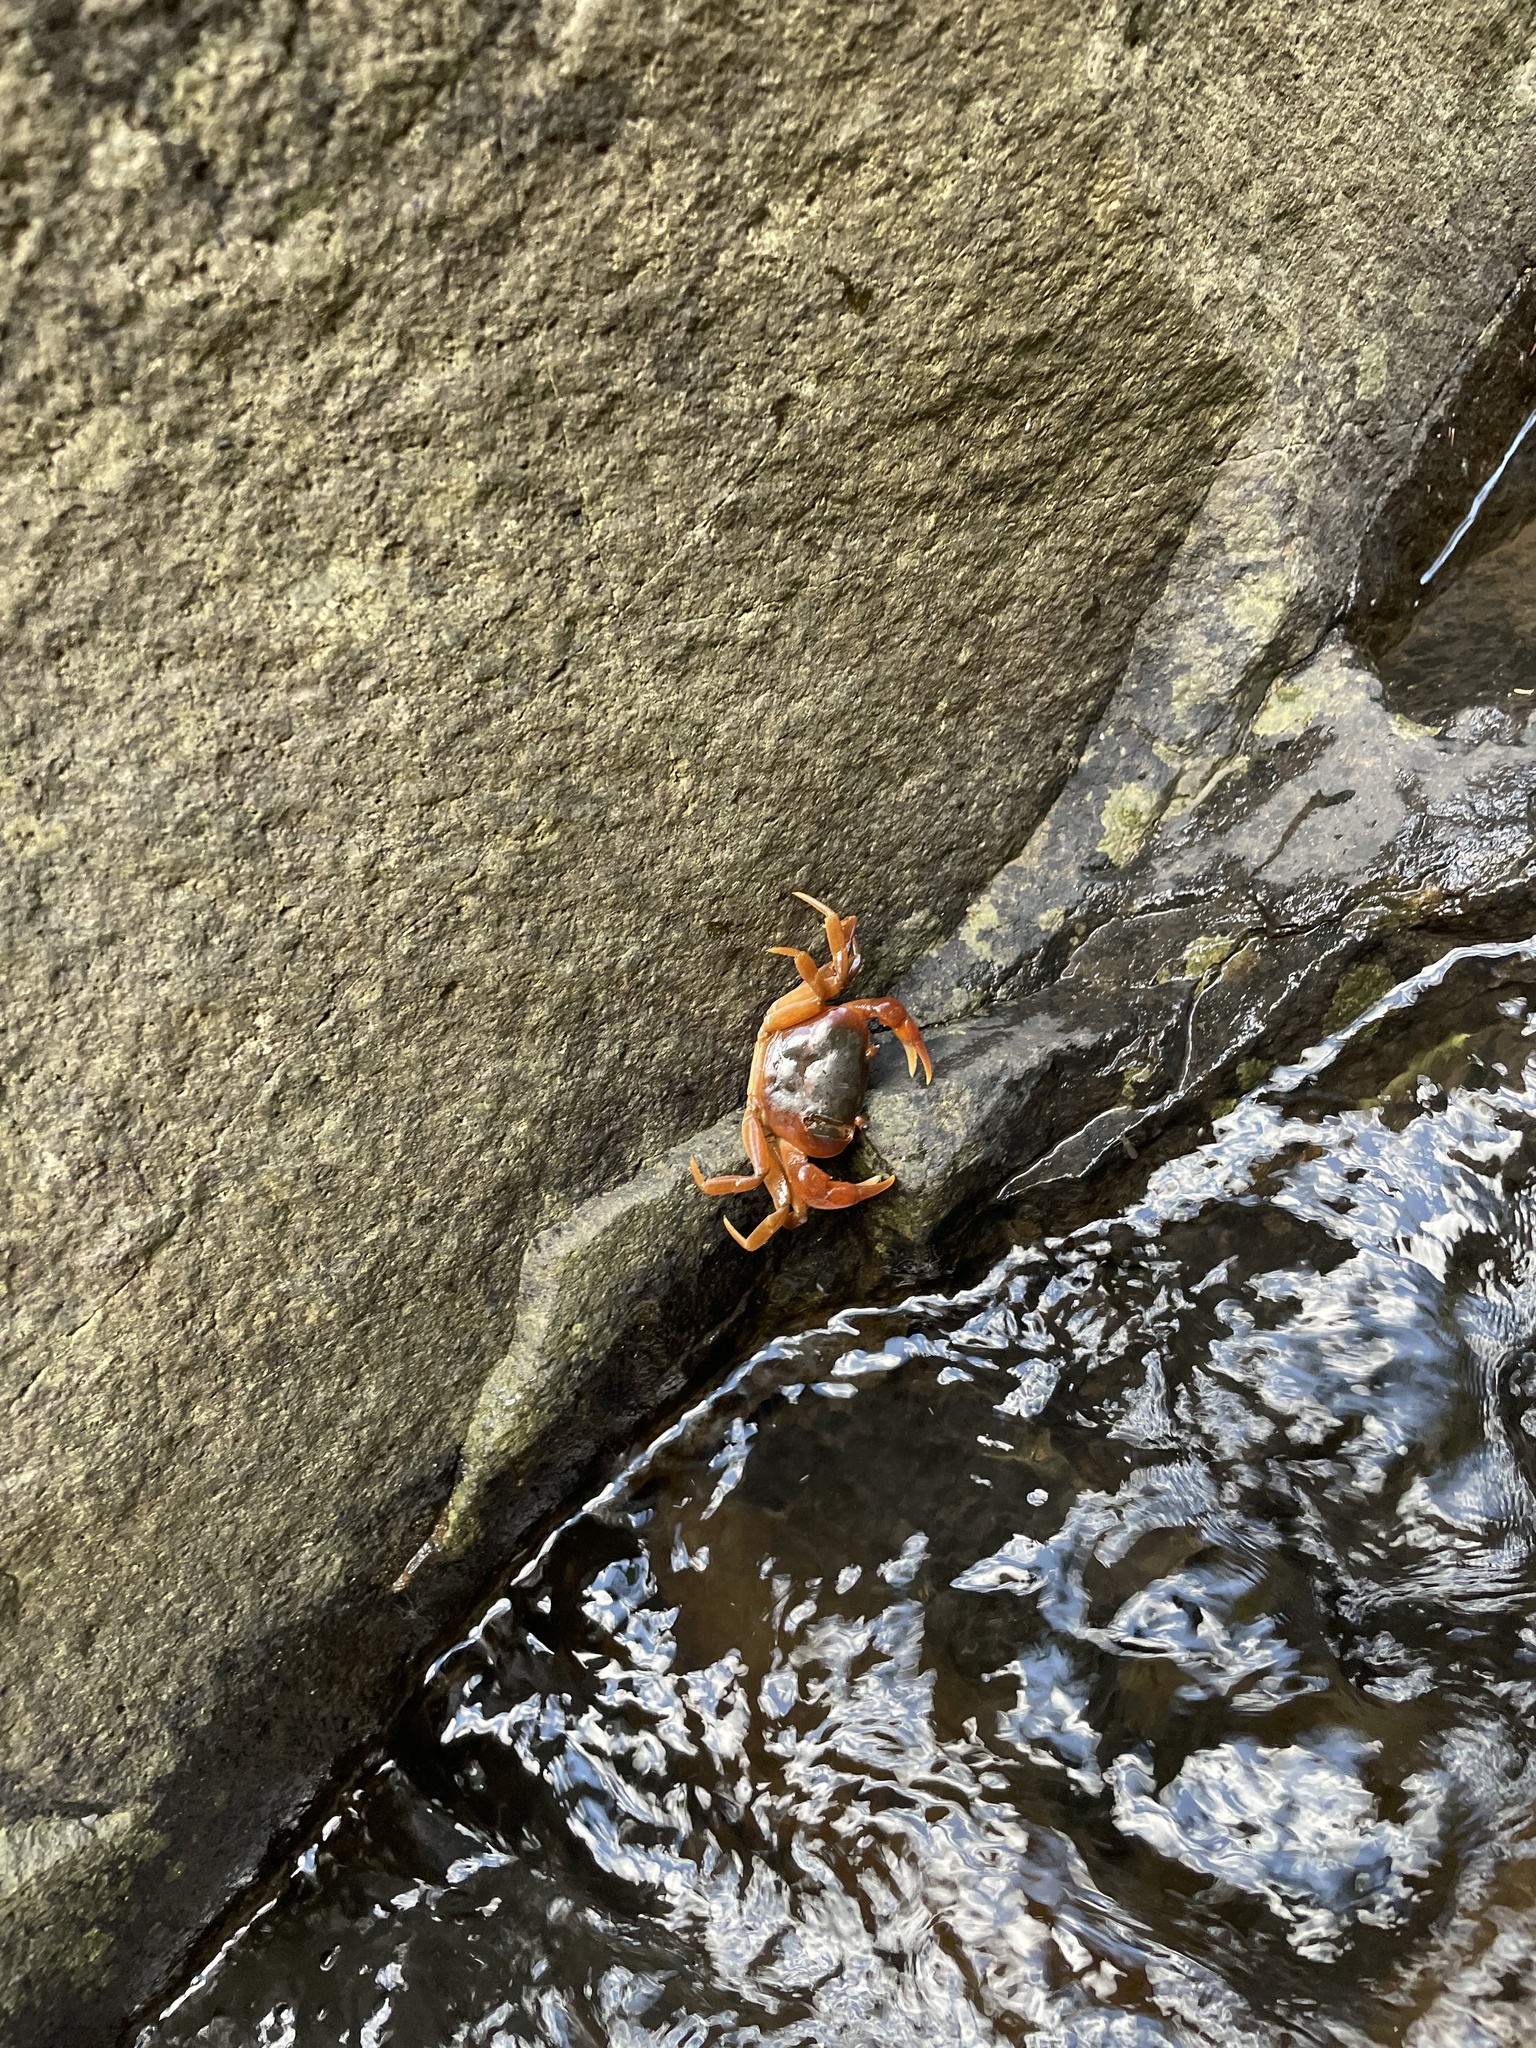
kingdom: Animalia
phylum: Arthropoda
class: Malacostraca
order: Decapoda
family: Potamonautidae
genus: Potamonautes
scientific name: Potamonautes clarus
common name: Bright river crab
